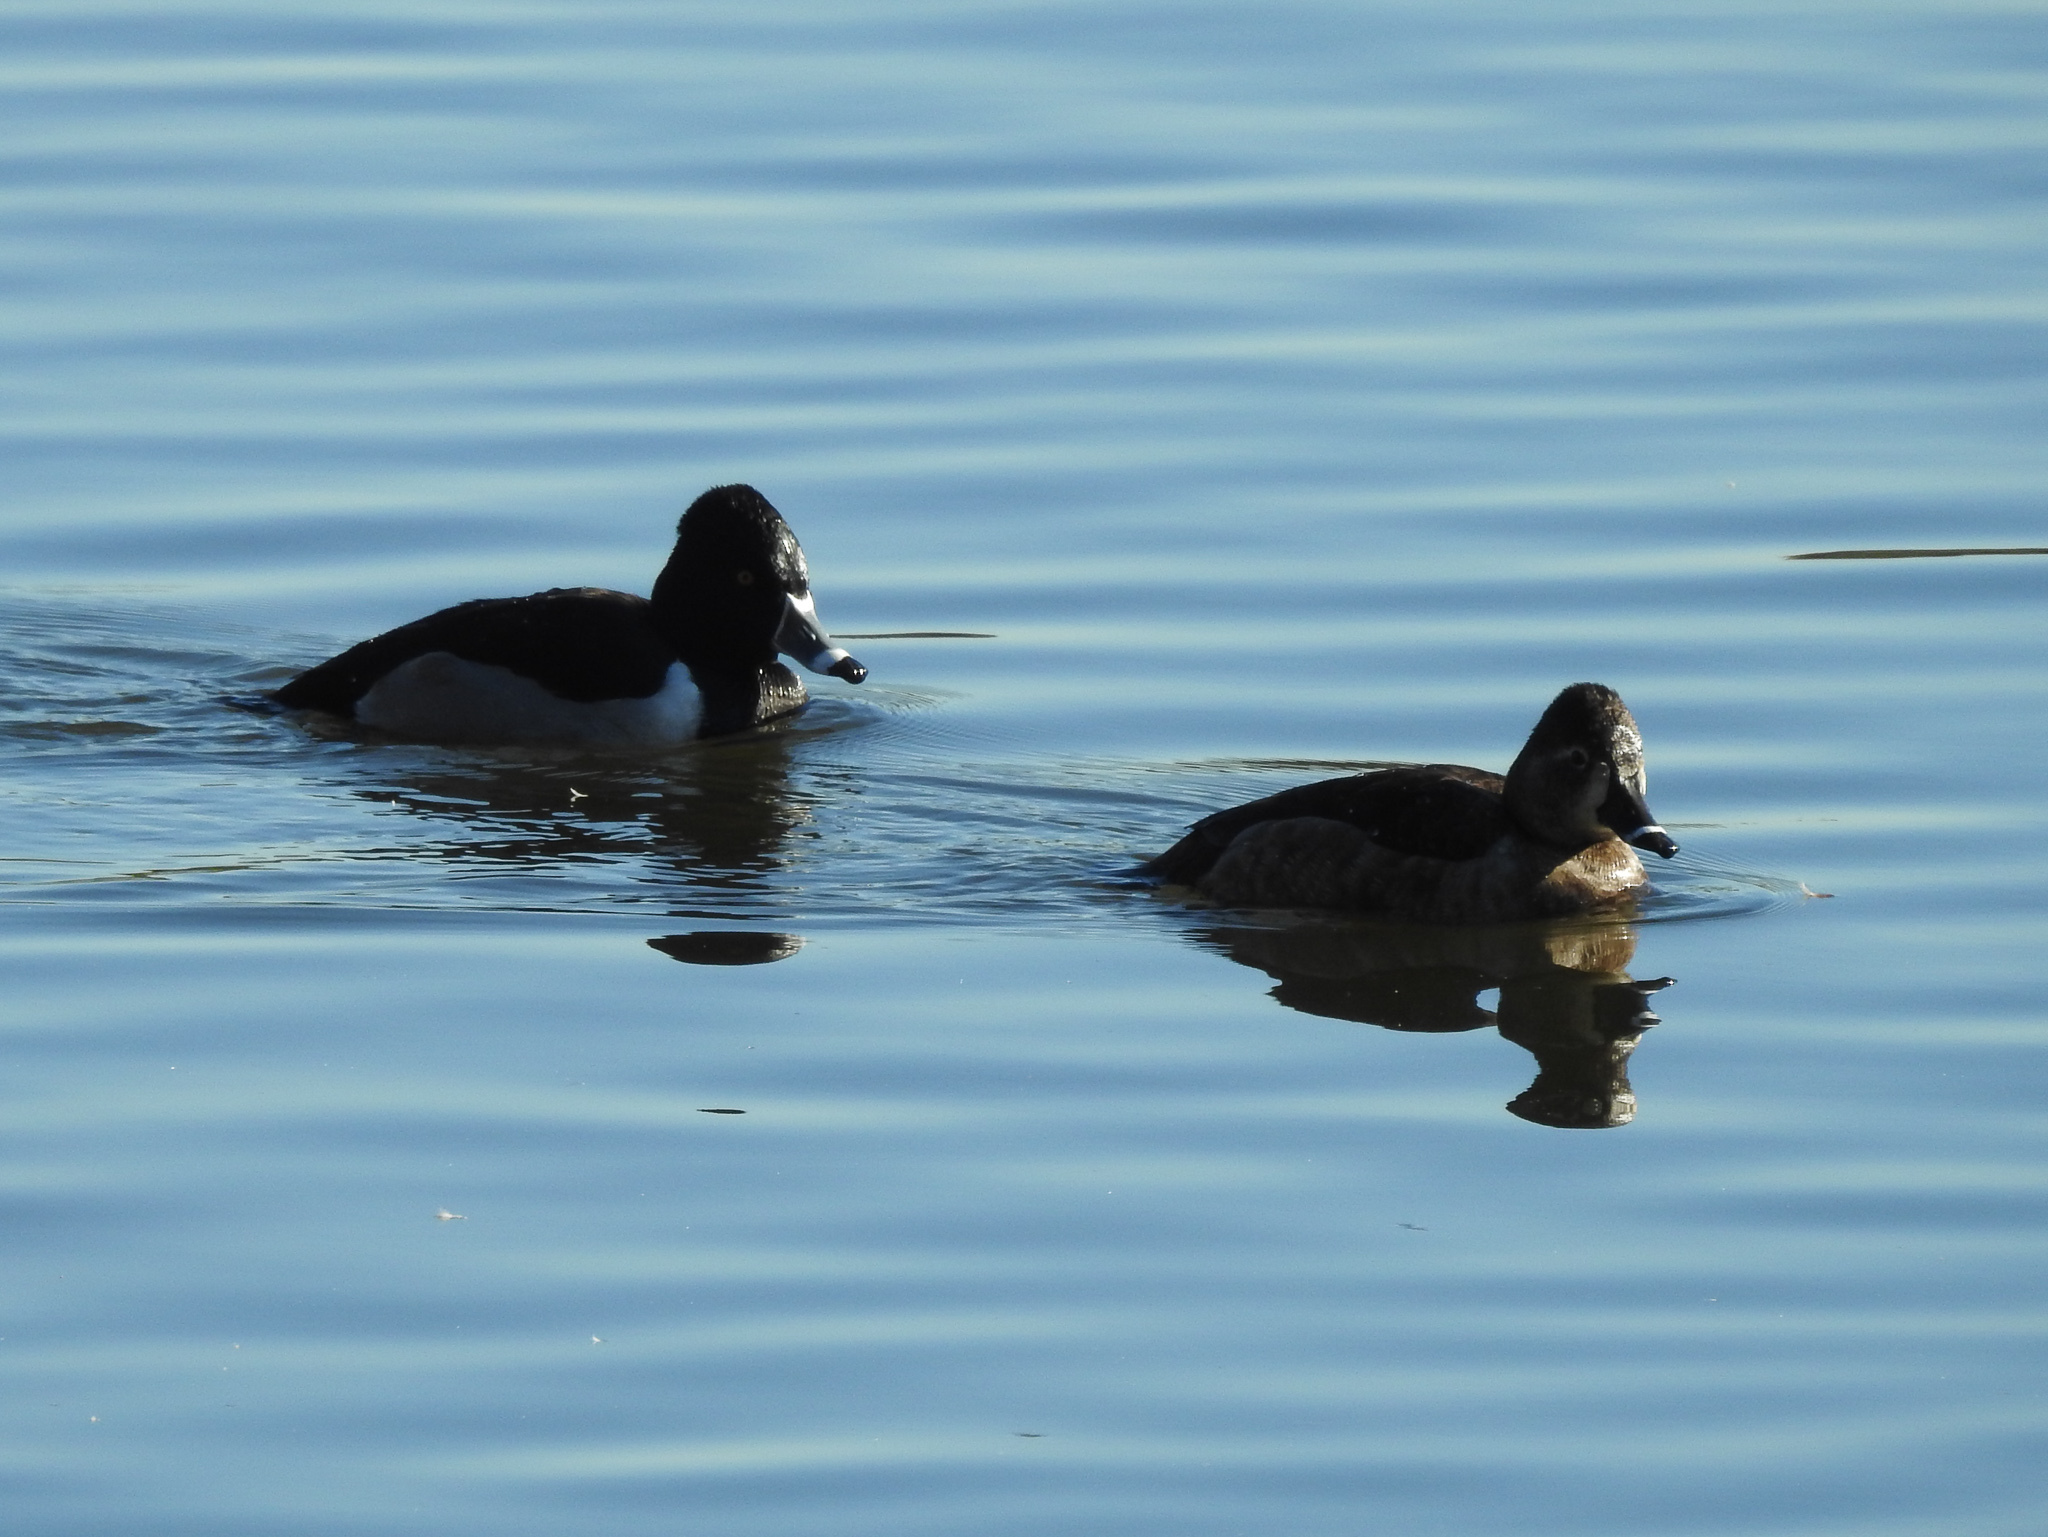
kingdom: Animalia
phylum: Chordata
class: Aves
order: Anseriformes
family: Anatidae
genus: Aythya
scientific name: Aythya collaris
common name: Ring-necked duck
